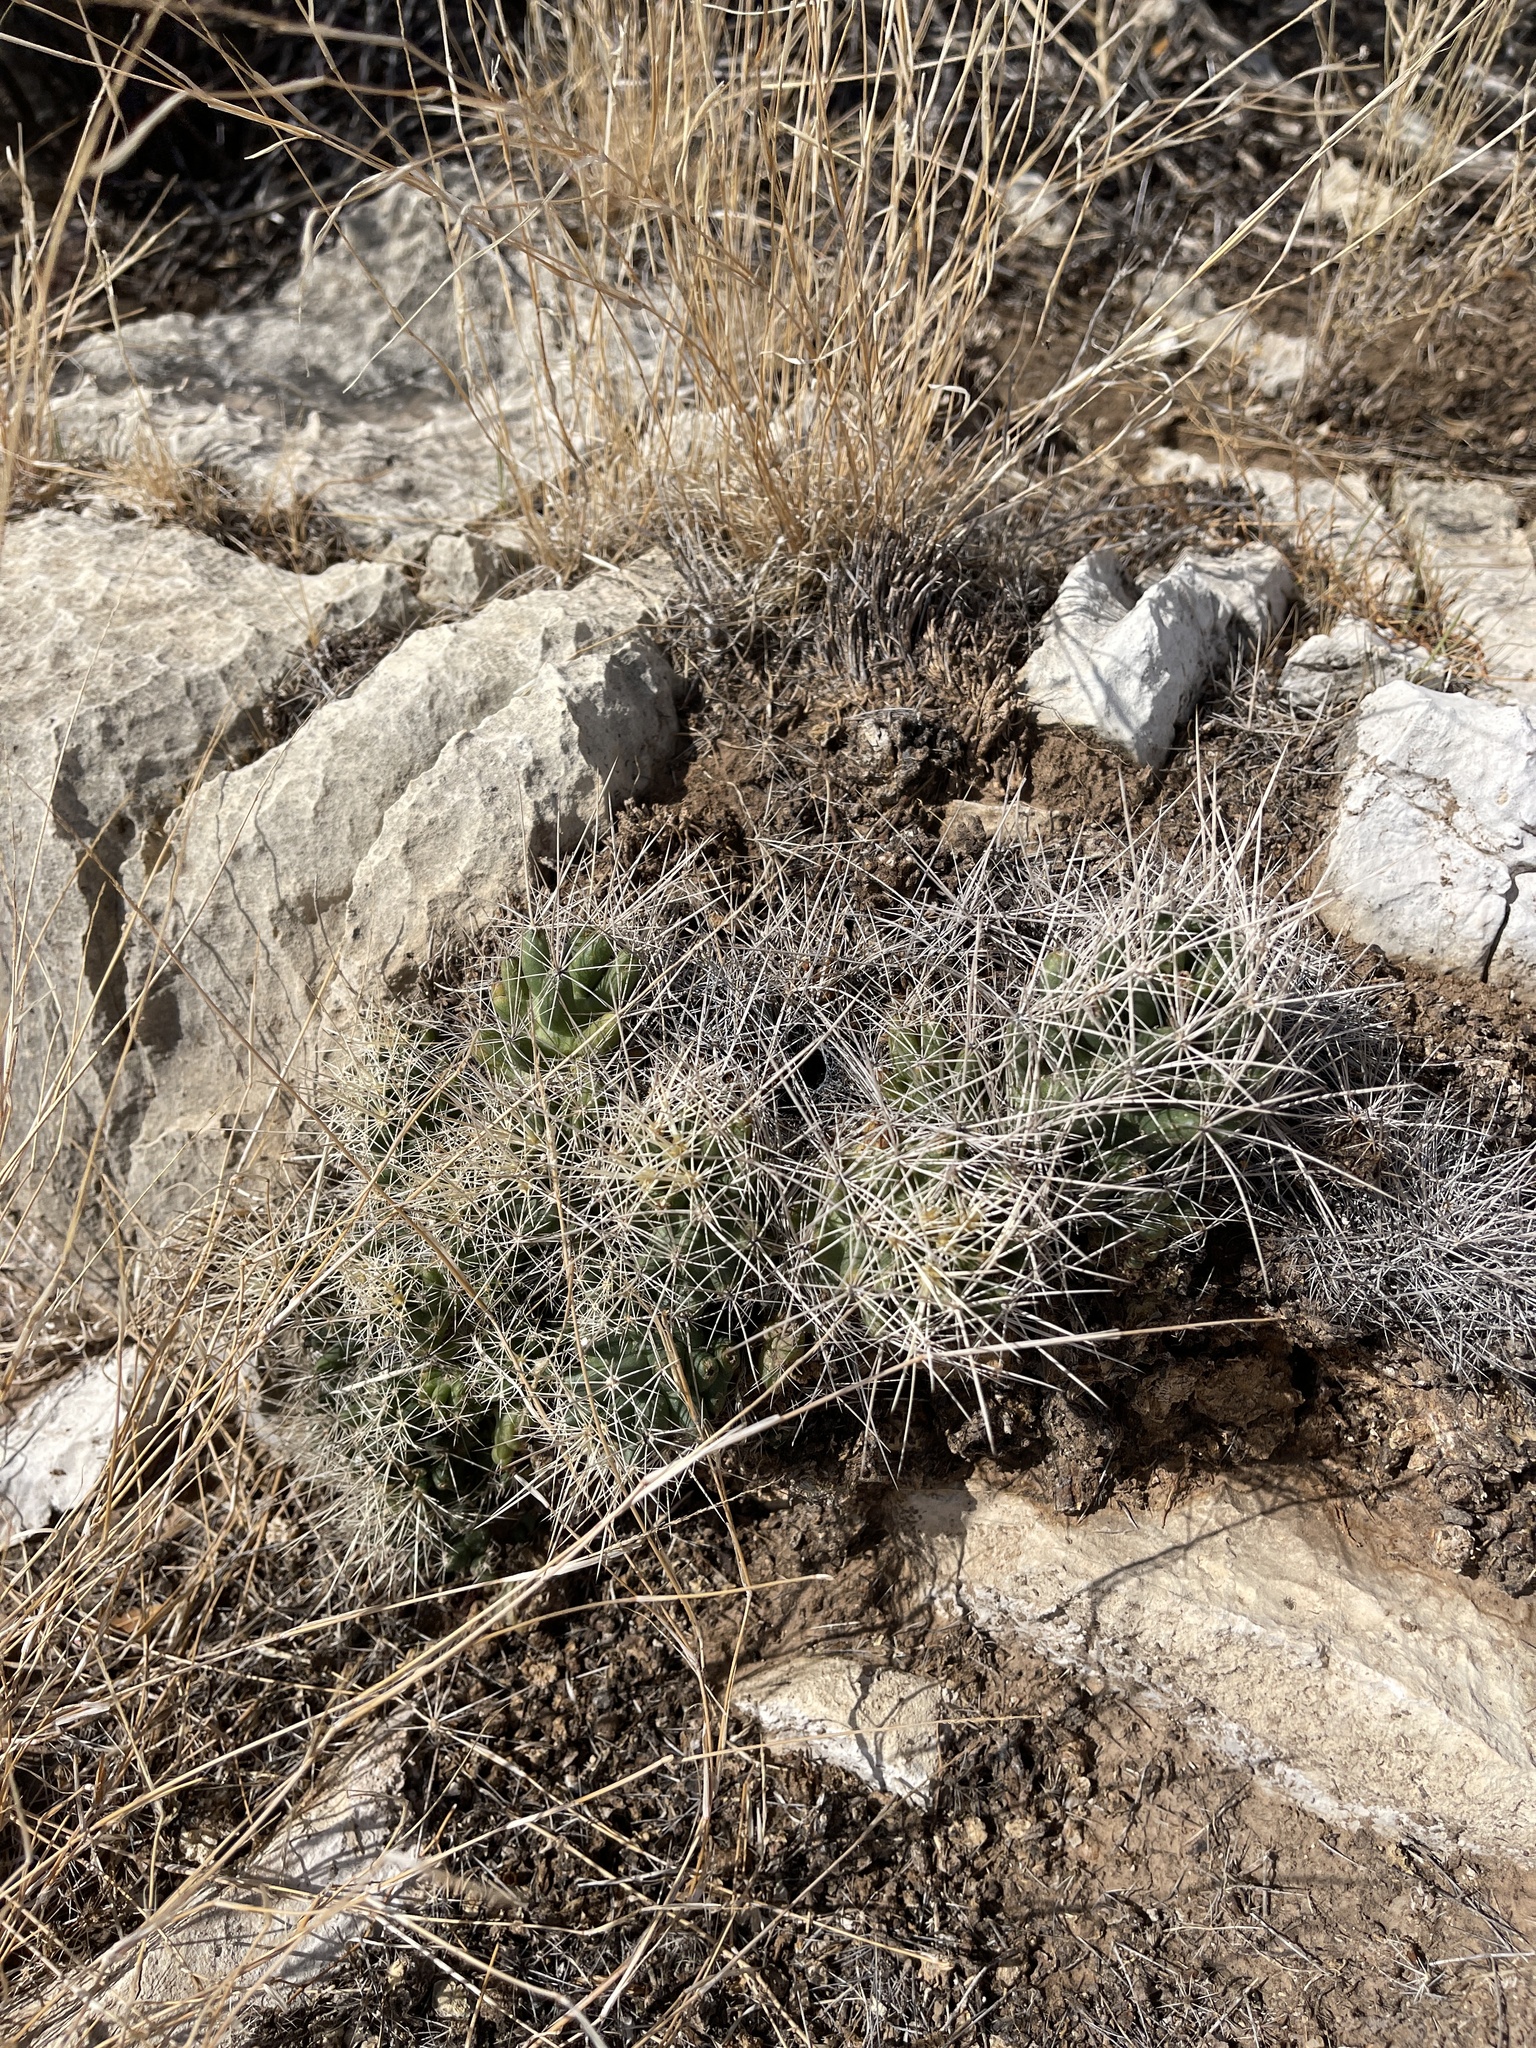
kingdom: Plantae
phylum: Tracheophyta
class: Magnoliopsida
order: Caryophyllales
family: Cactaceae
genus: Coryphantha
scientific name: Coryphantha macromeris
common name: Nipple beehive cactus
